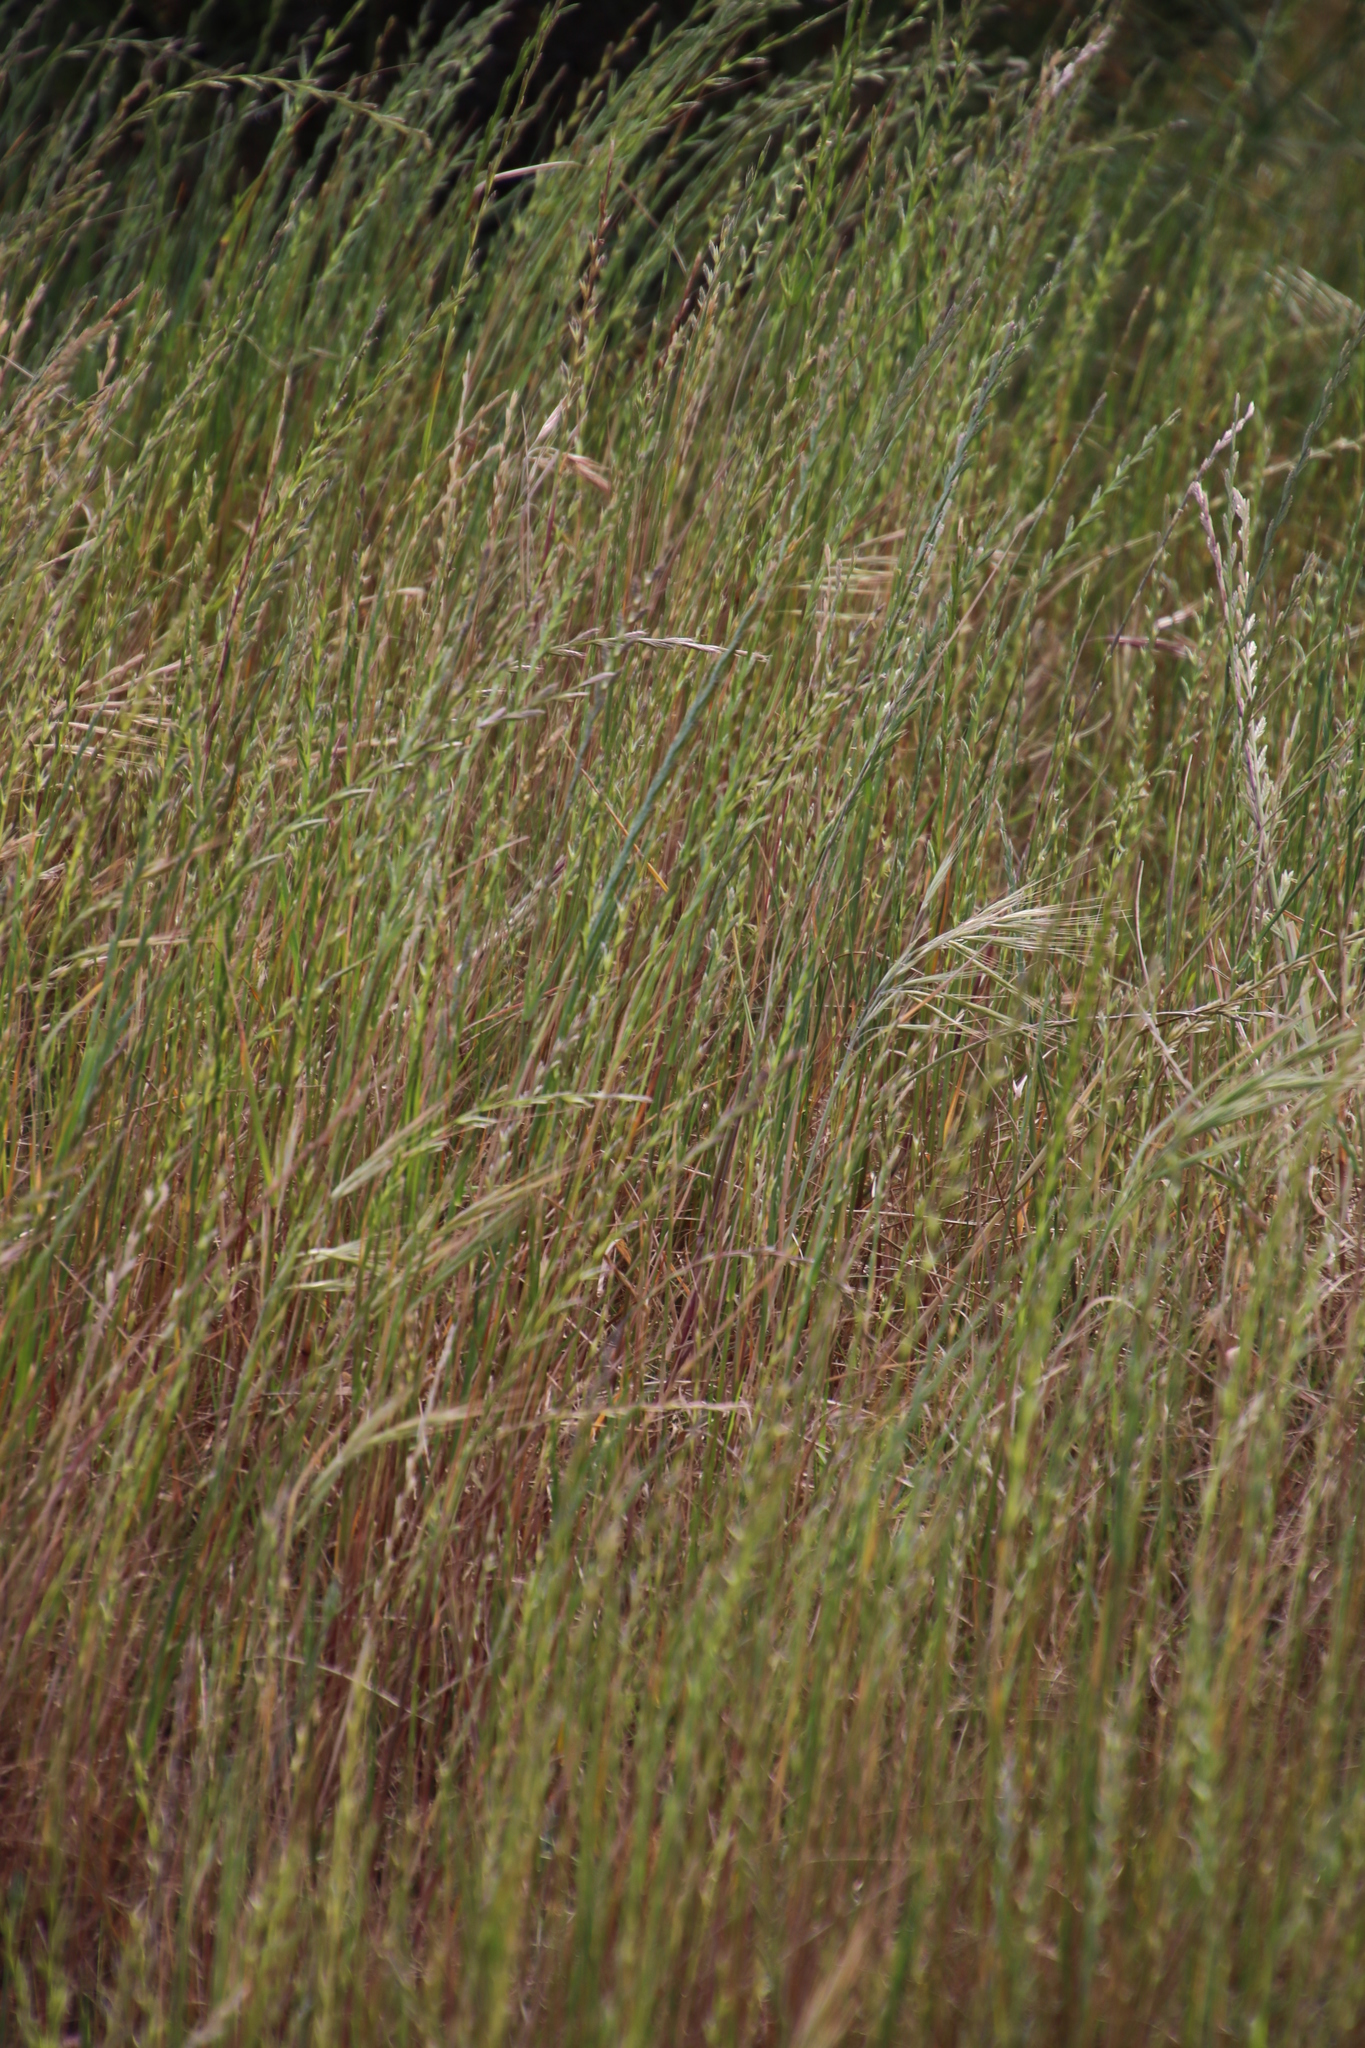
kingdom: Plantae
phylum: Tracheophyta
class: Liliopsida
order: Poales
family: Poaceae
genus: Lolium
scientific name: Lolium perenne
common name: Perennial ryegrass
